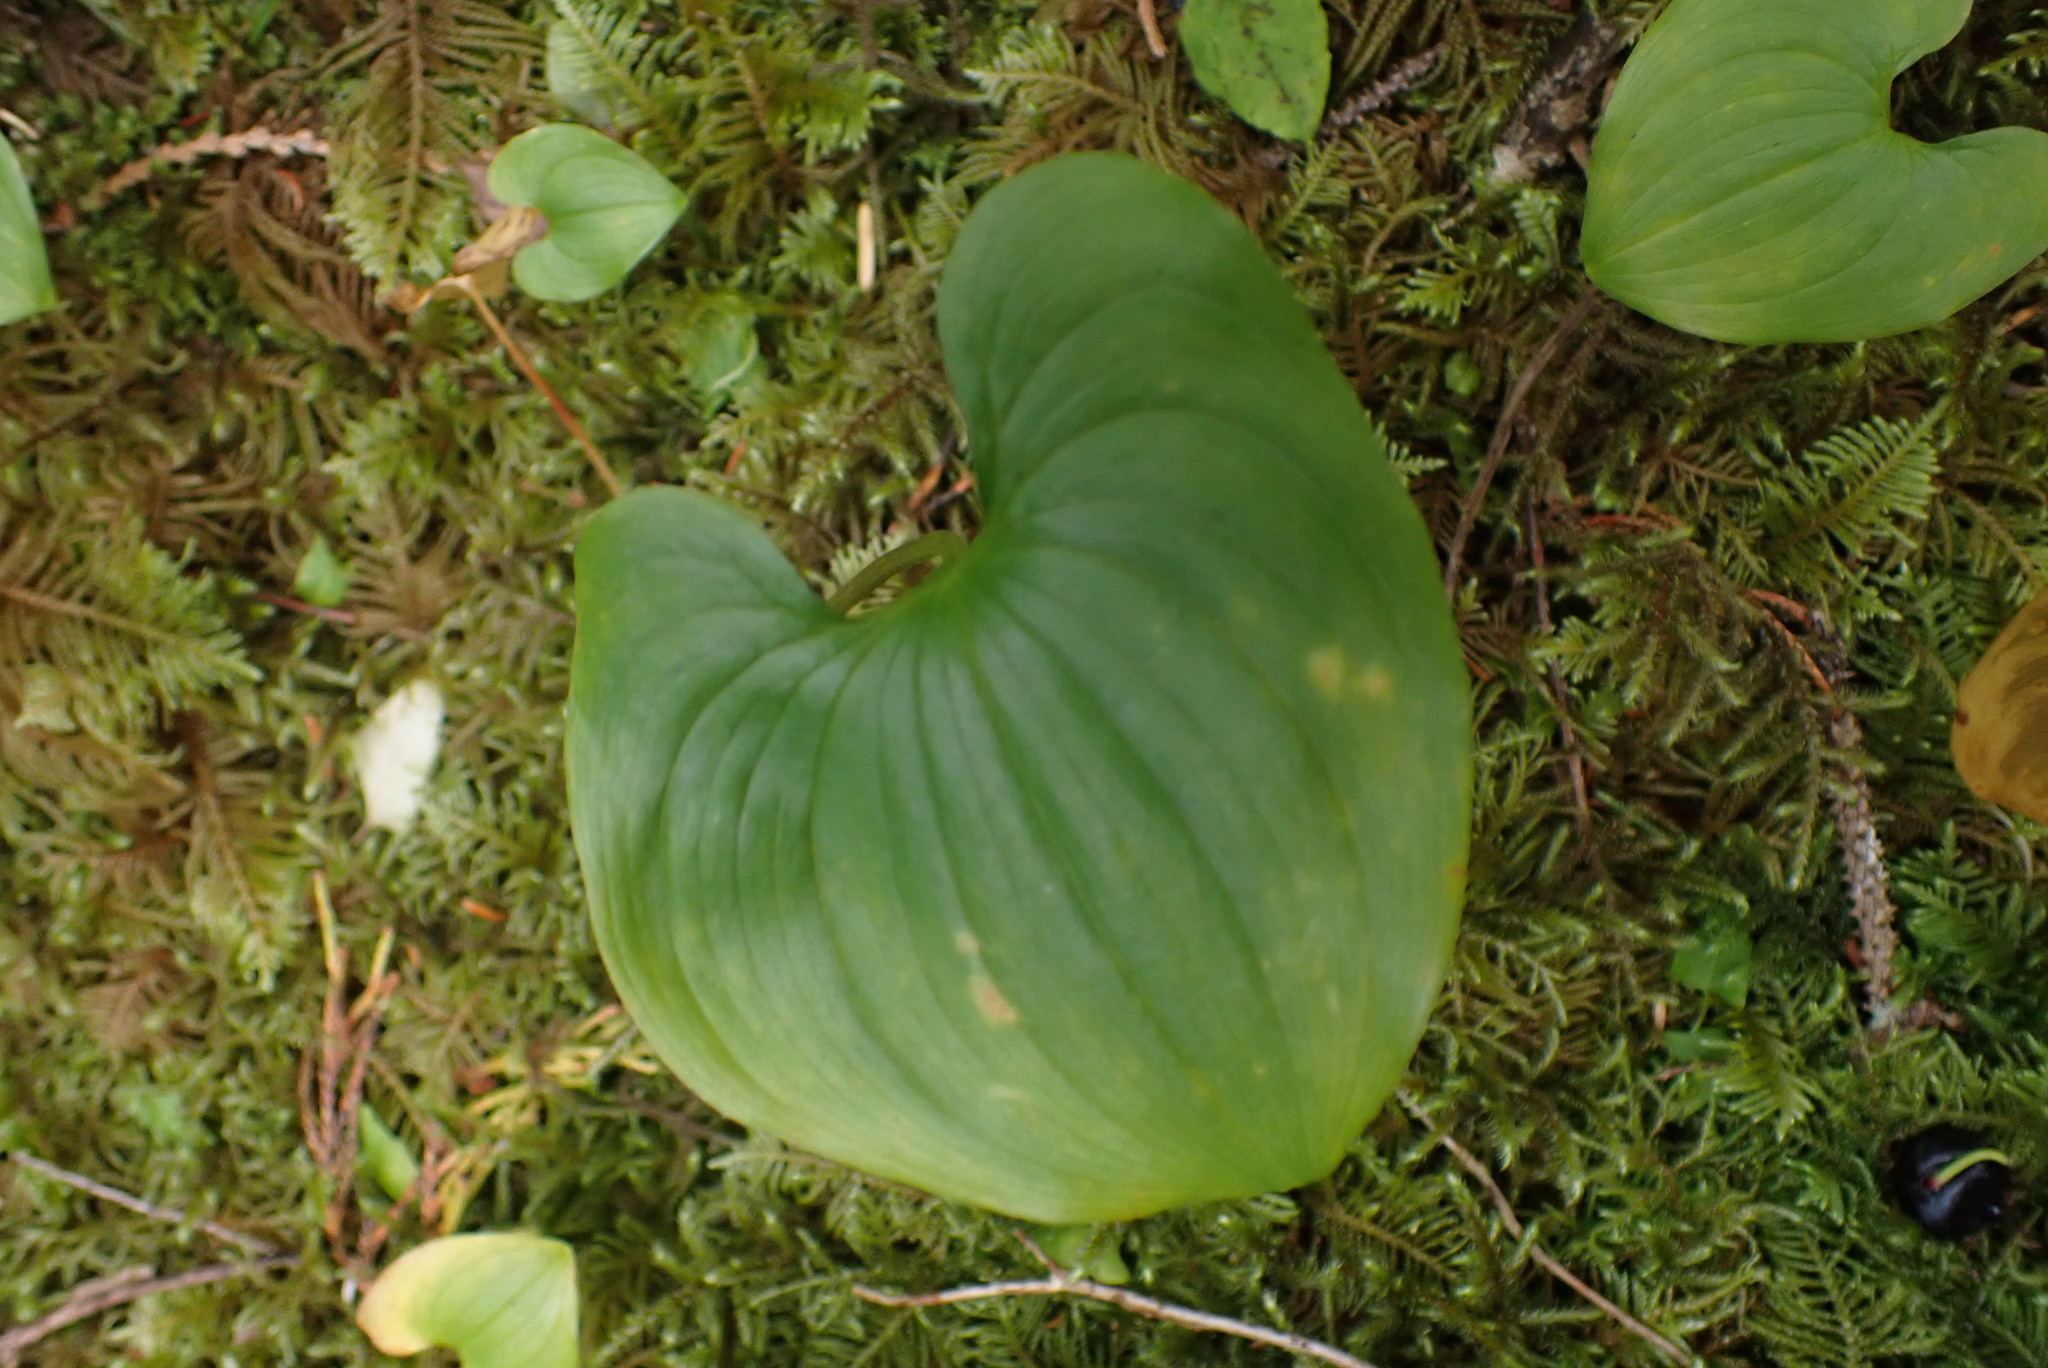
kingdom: Plantae
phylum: Tracheophyta
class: Liliopsida
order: Asparagales
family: Asparagaceae
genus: Maianthemum
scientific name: Maianthemum dilatatum
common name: False lily-of-the-valley
